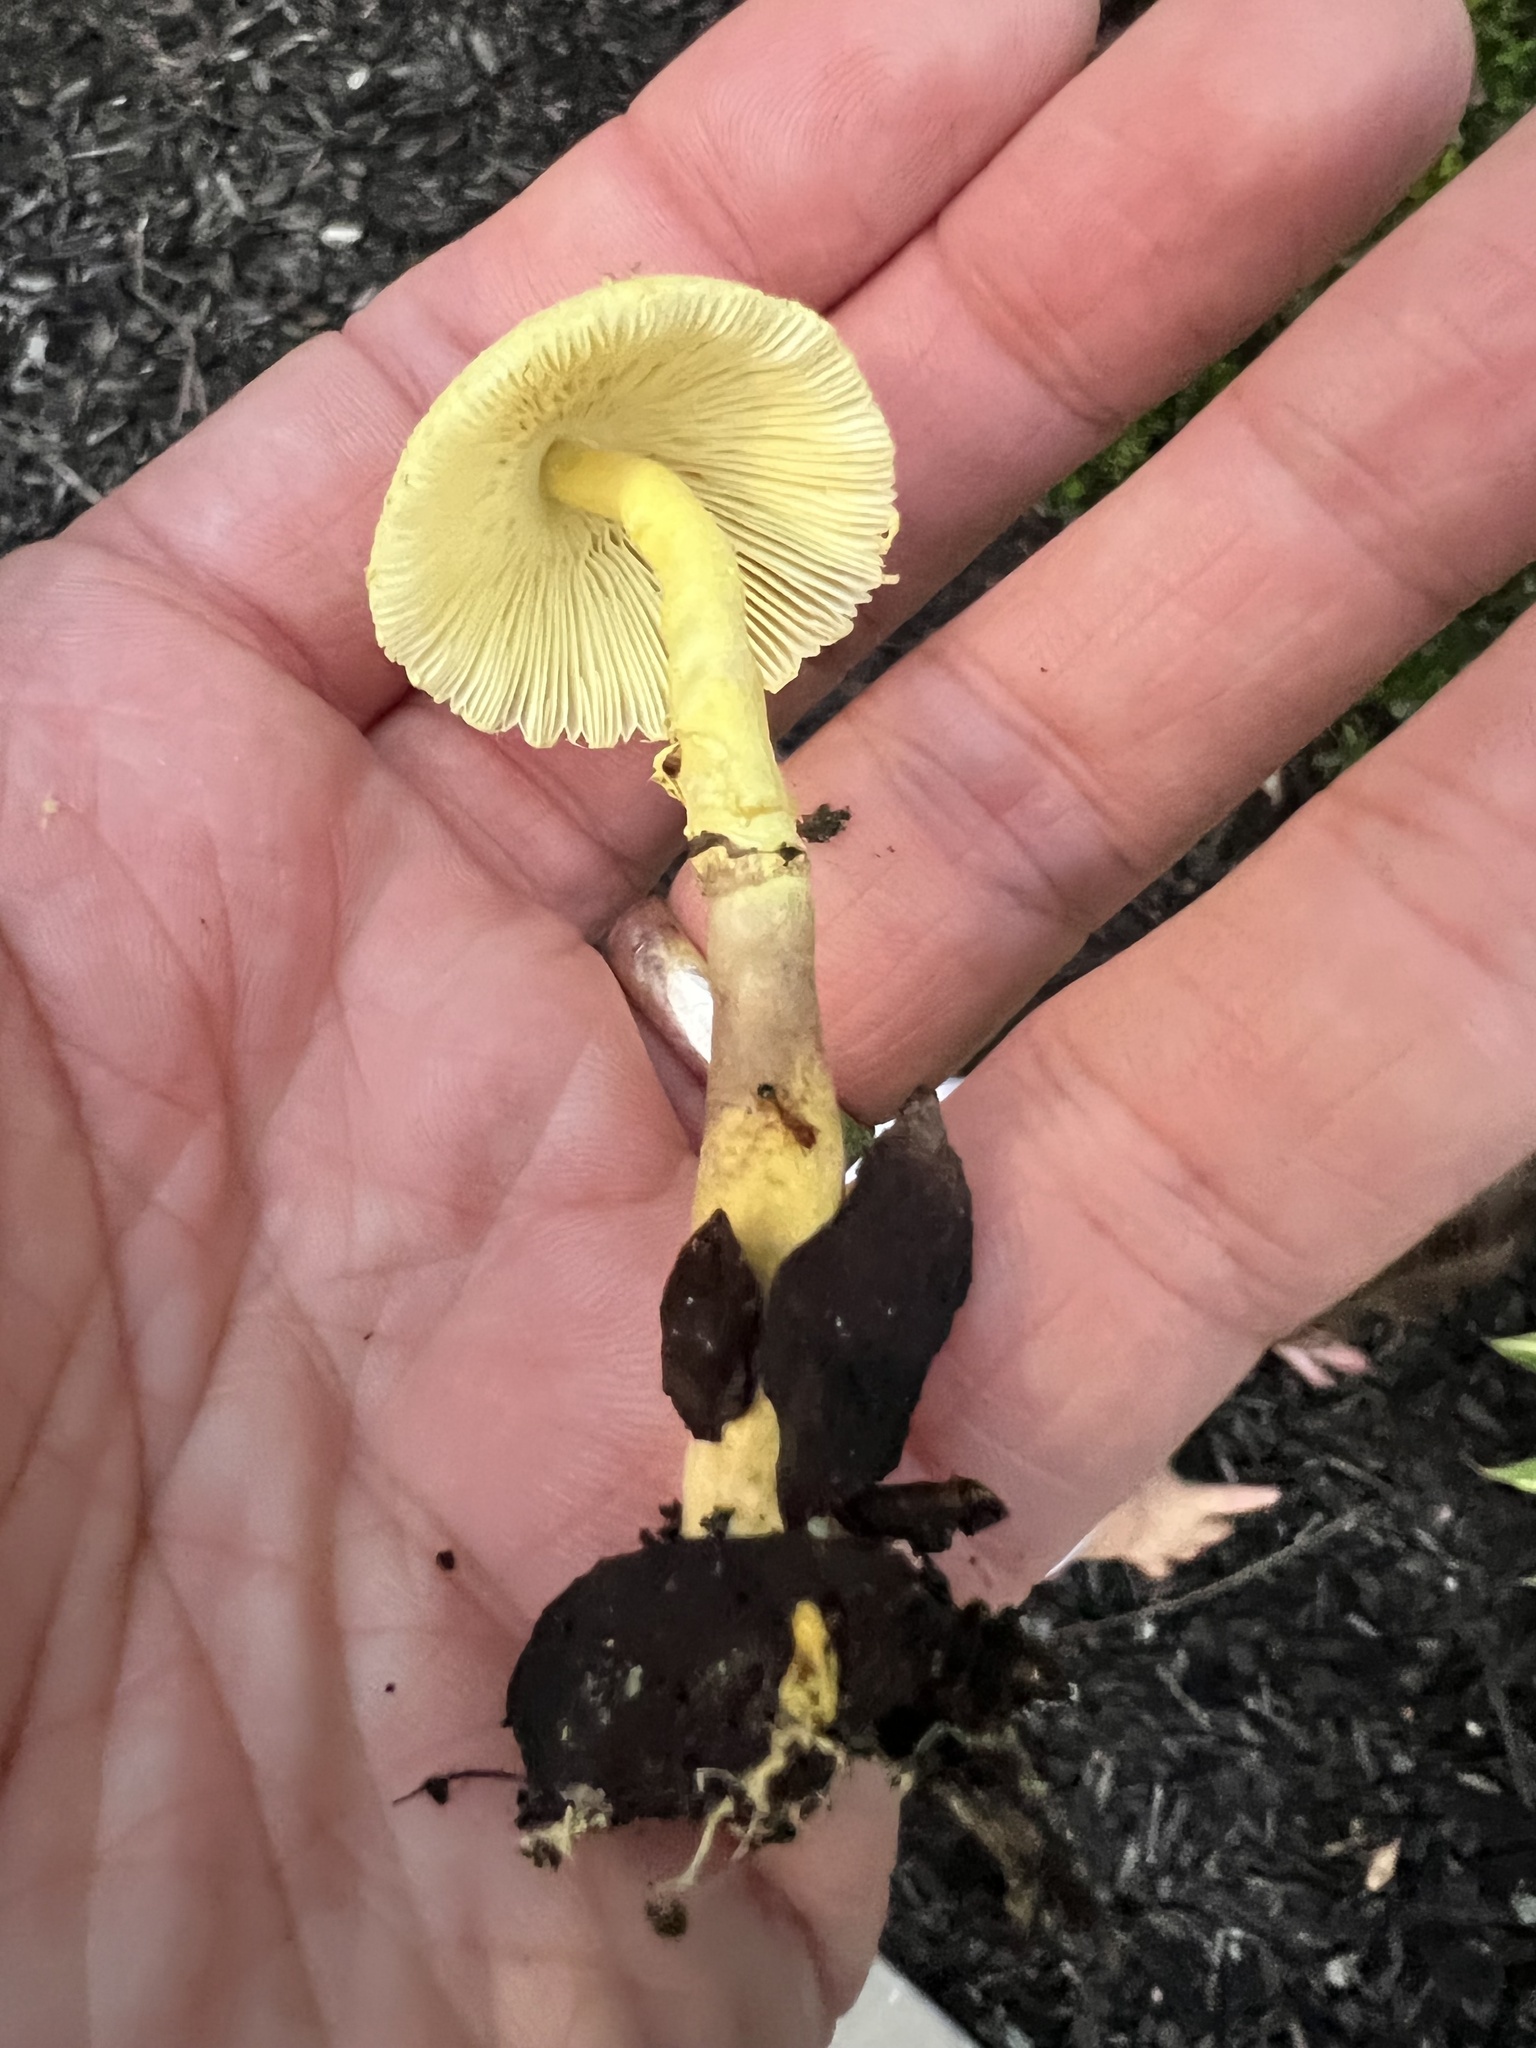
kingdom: Fungi
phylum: Basidiomycota
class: Agaricomycetes
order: Agaricales
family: Agaricaceae
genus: Leucocoprinus
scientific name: Leucocoprinus birnbaumii
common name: Plantpot dapperling
